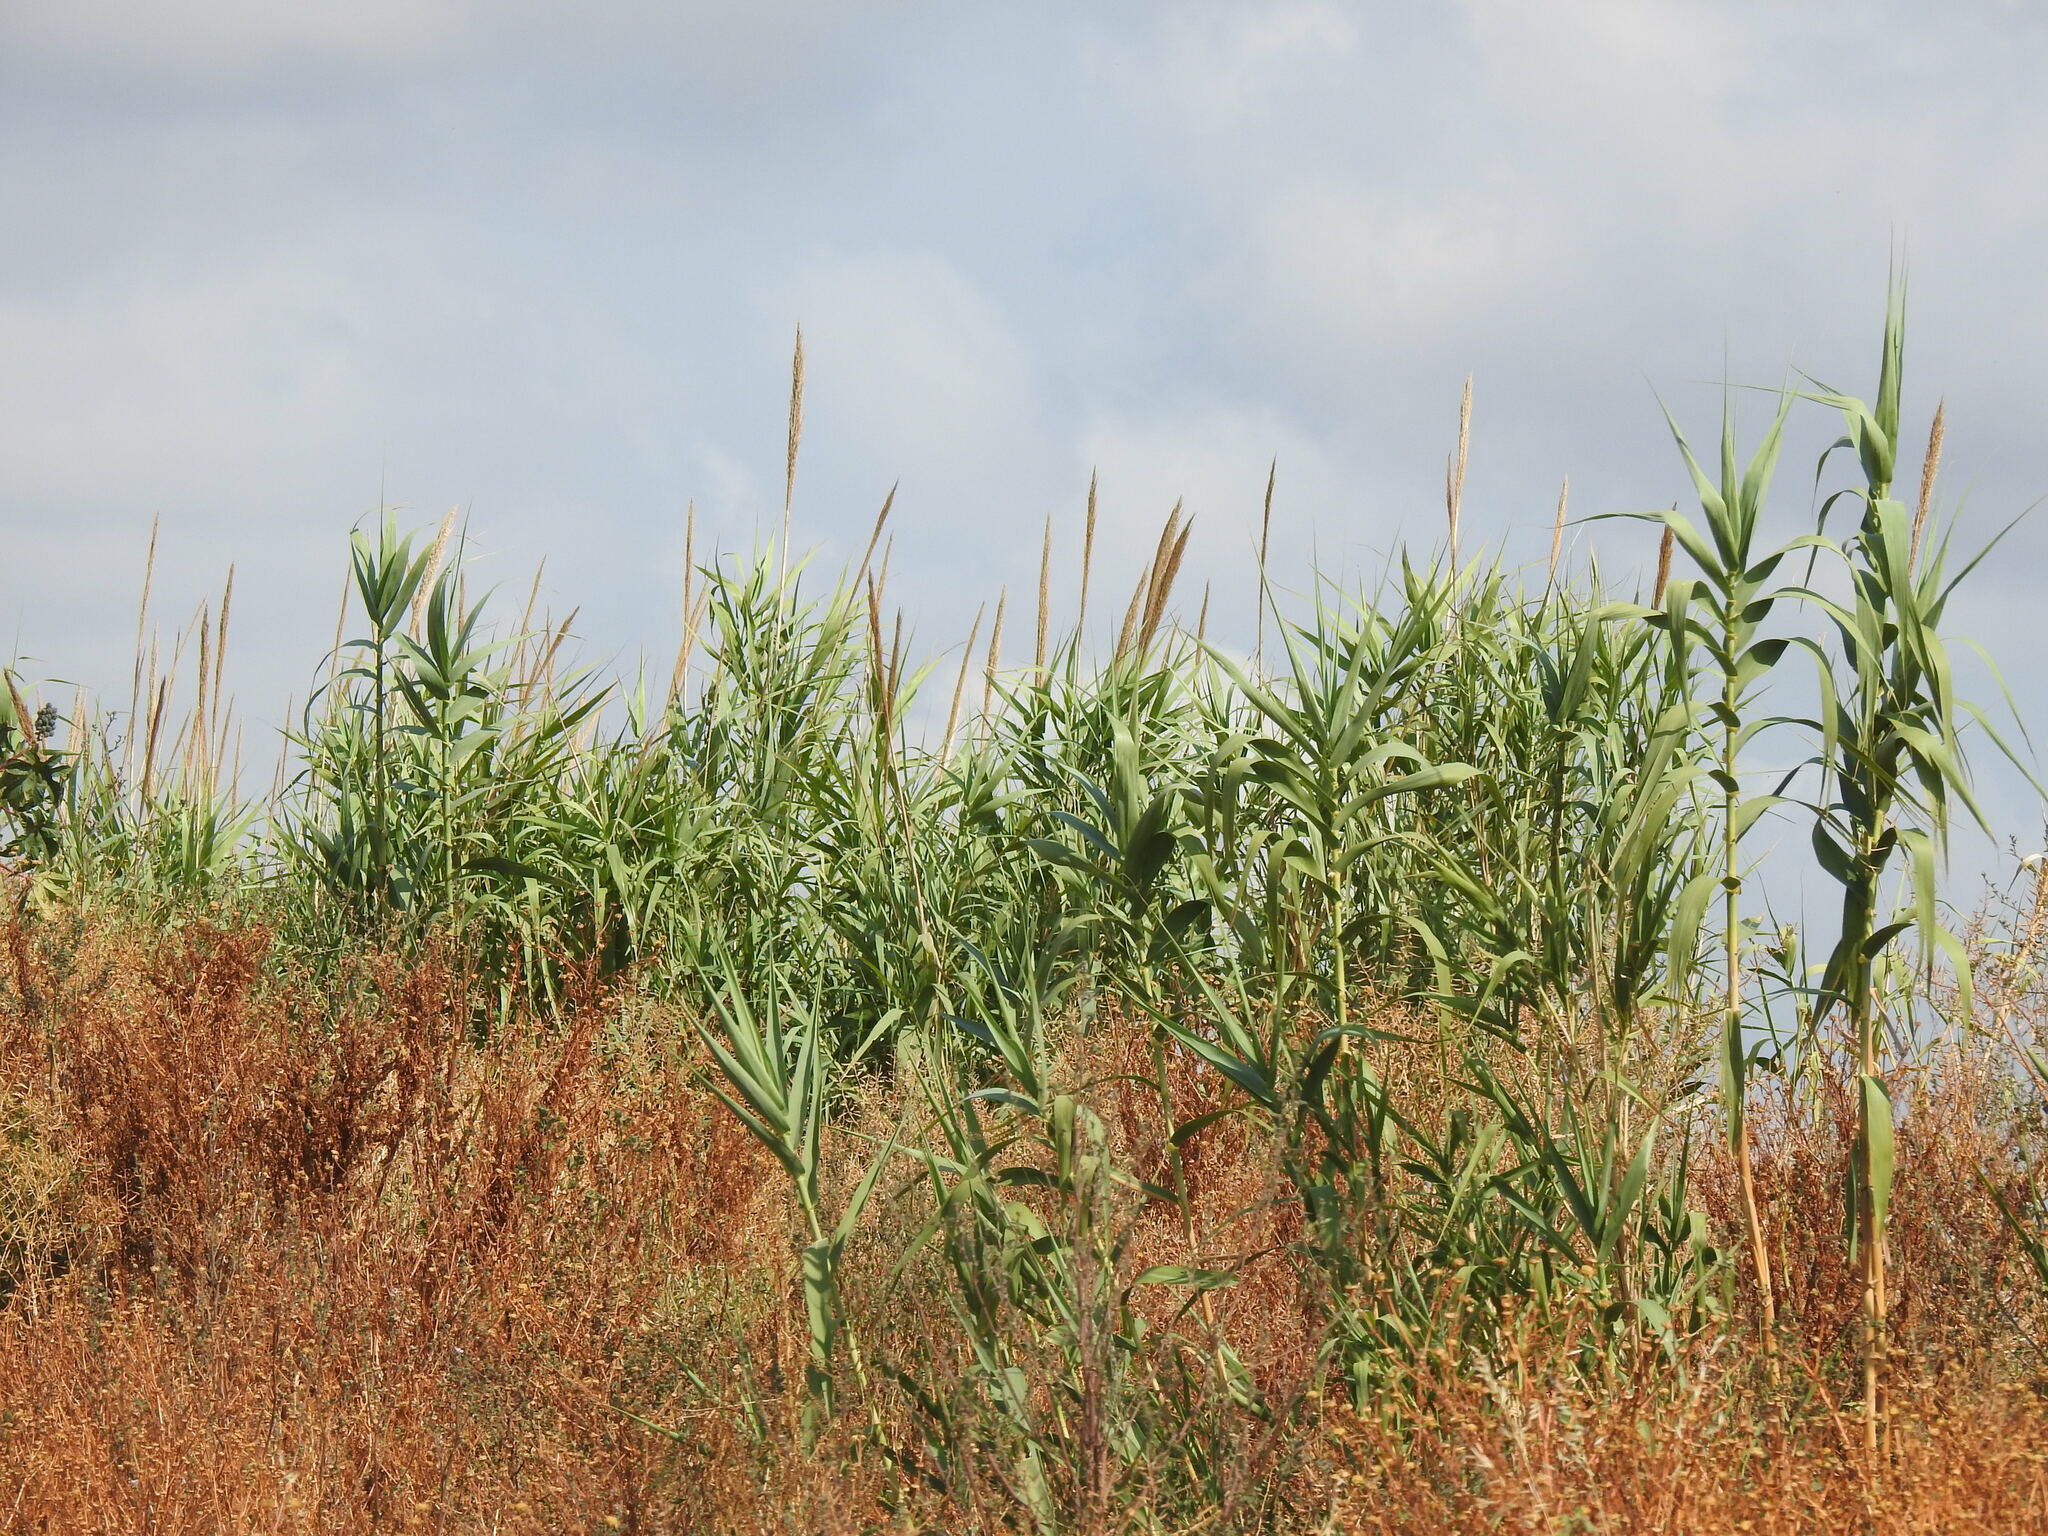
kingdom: Plantae
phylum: Tracheophyta
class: Liliopsida
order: Poales
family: Poaceae
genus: Arundo
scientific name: Arundo donax
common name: Giant reed
